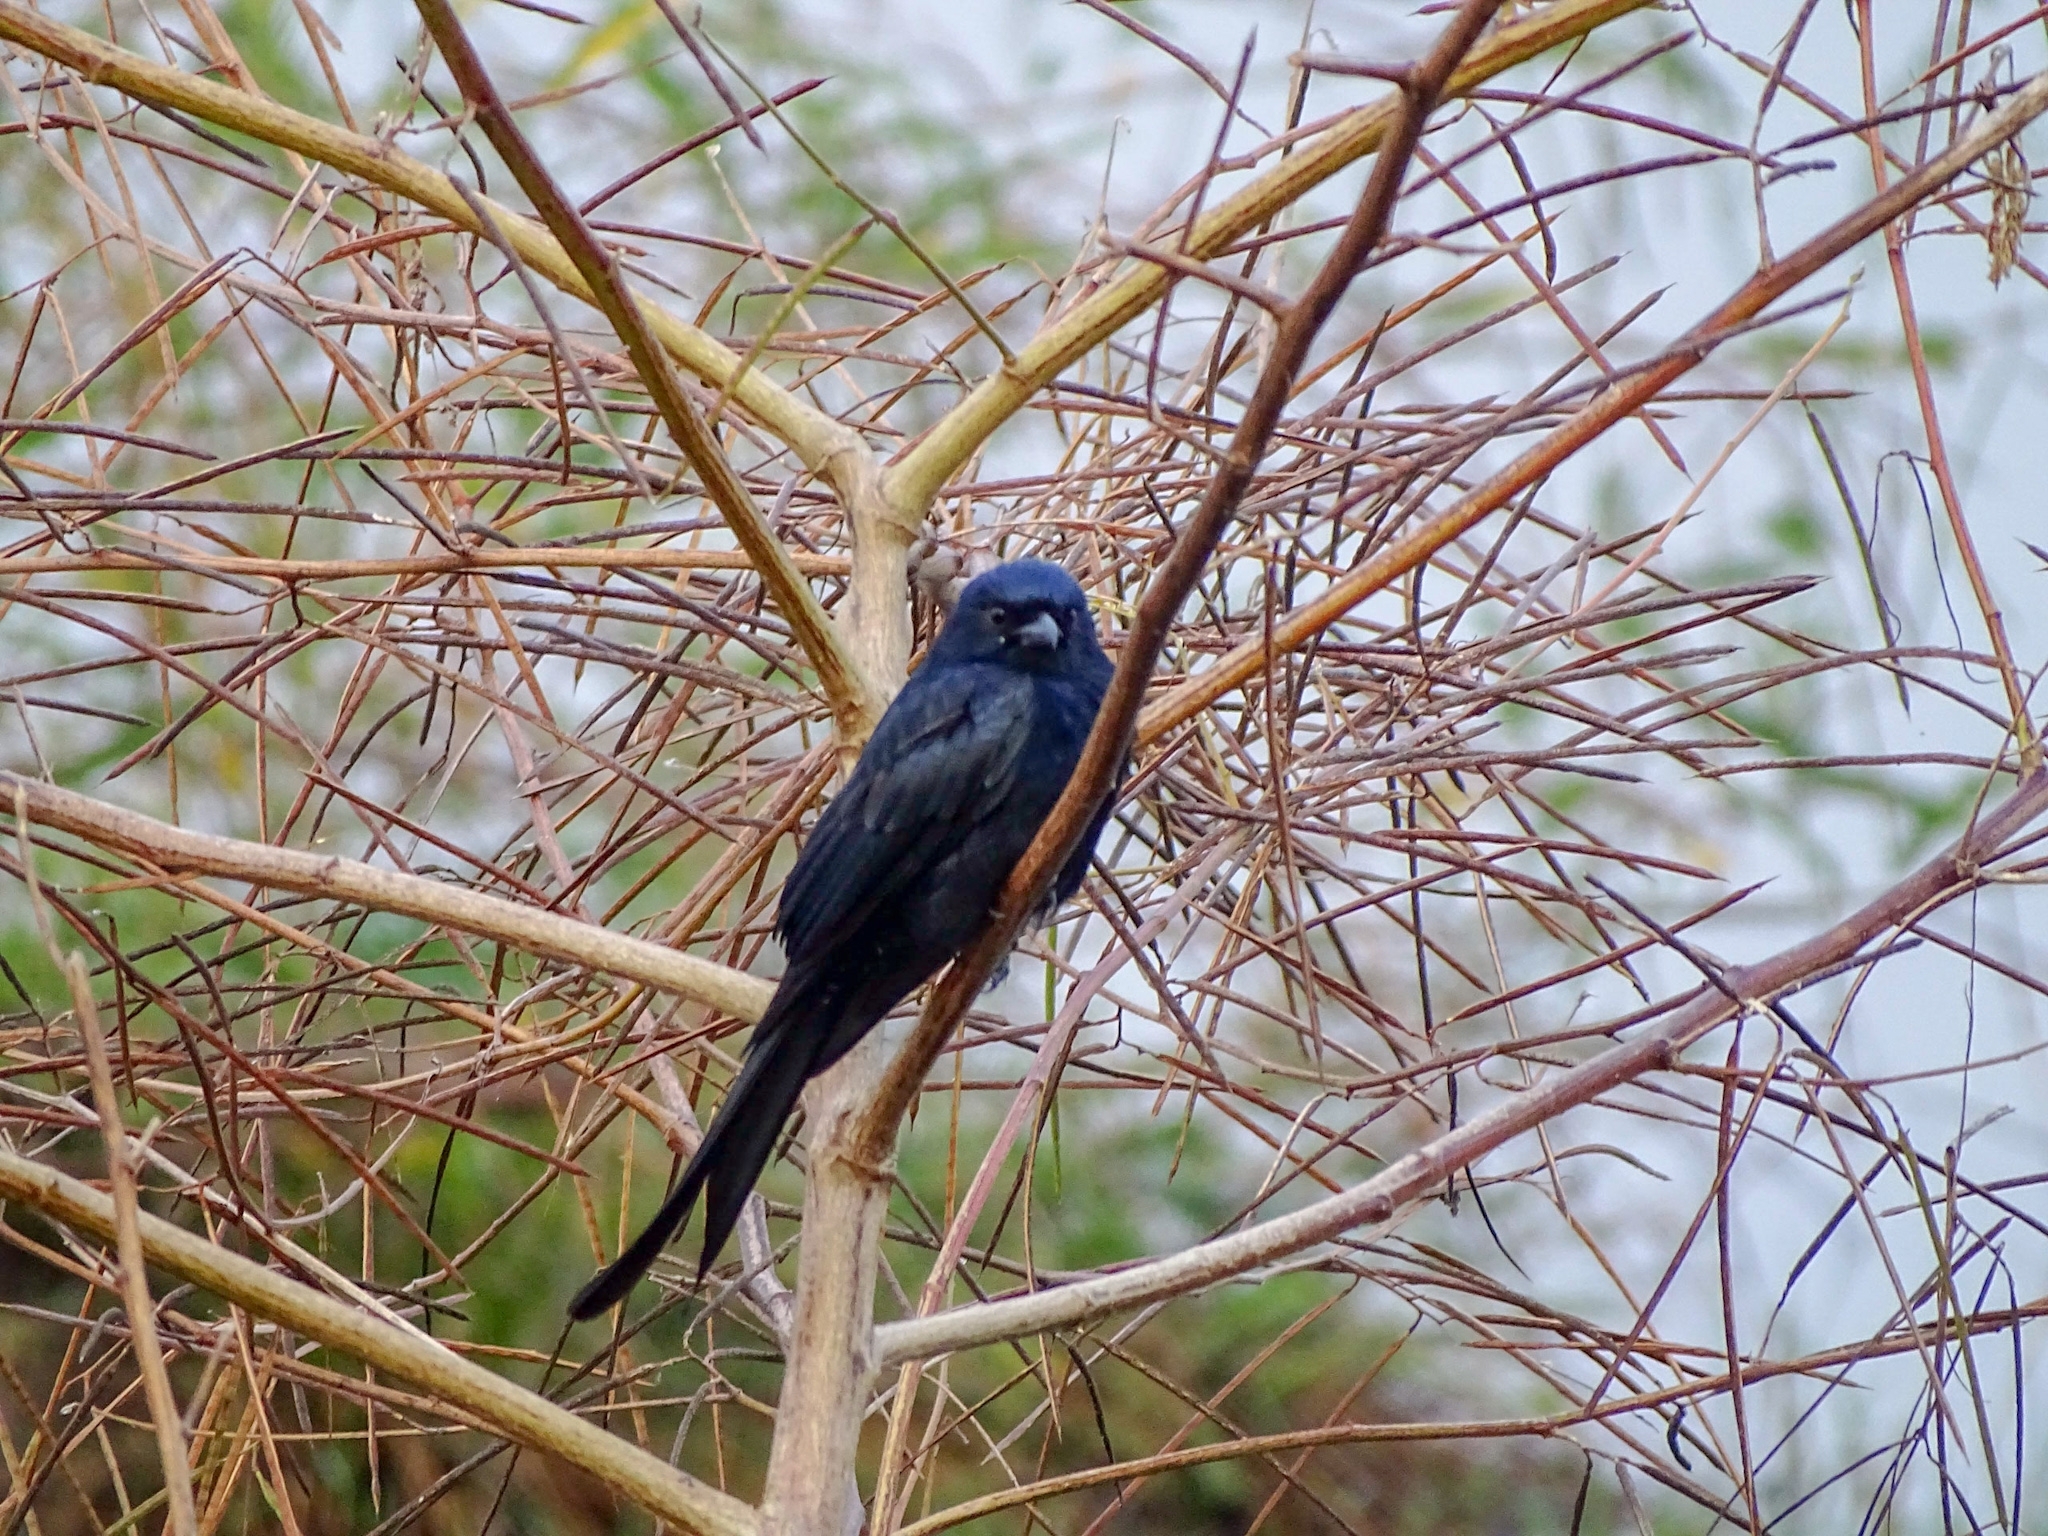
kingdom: Animalia
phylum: Chordata
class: Aves
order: Passeriformes
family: Dicruridae
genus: Dicrurus
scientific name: Dicrurus macrocercus
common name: Black drongo
